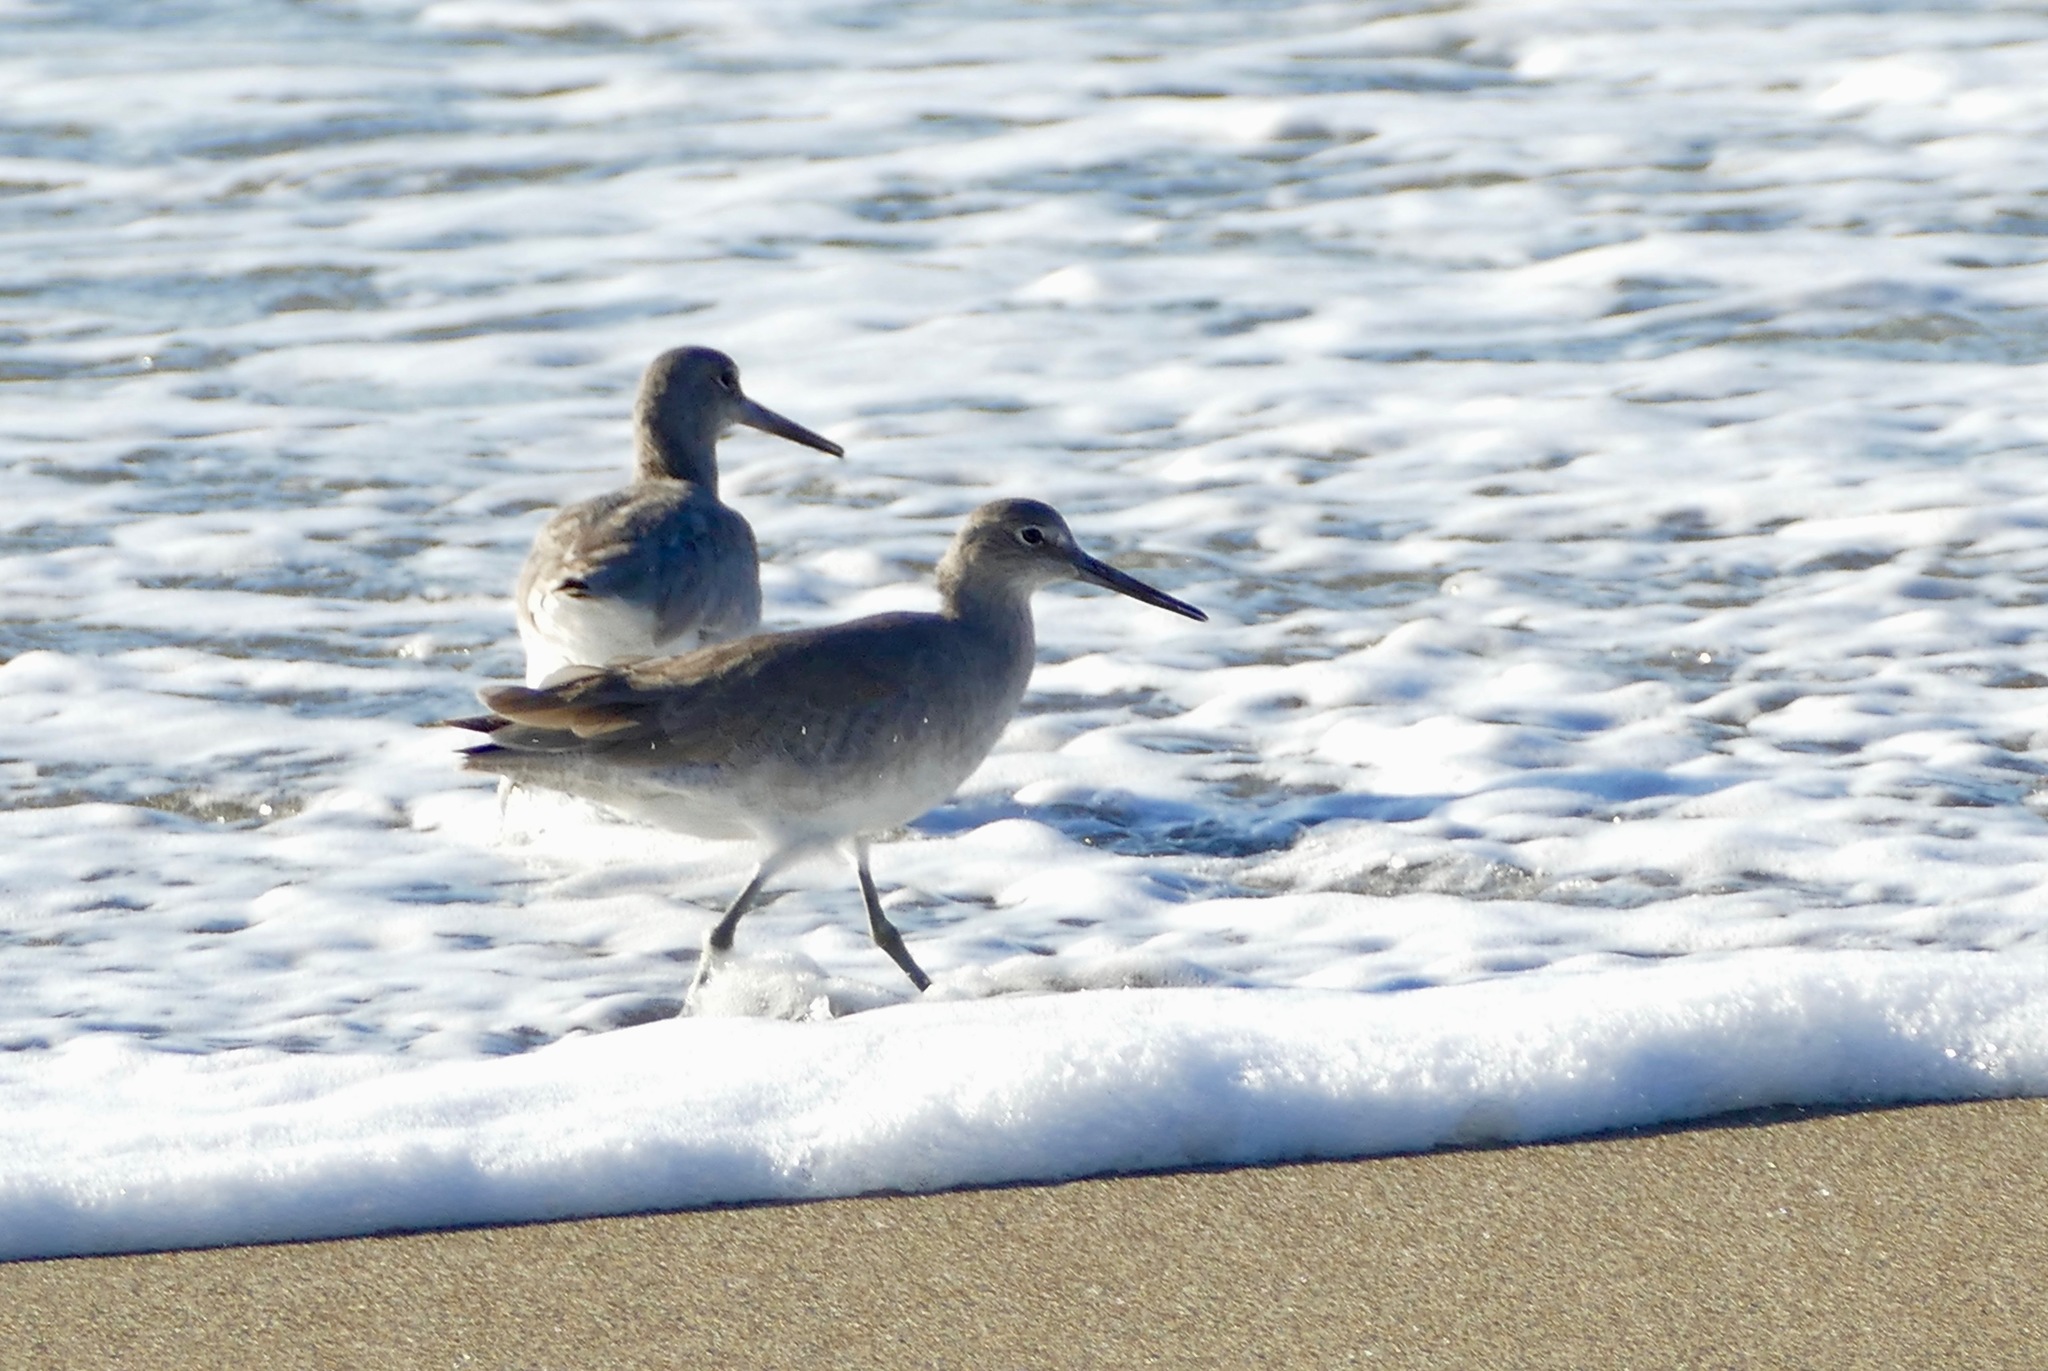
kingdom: Animalia
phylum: Chordata
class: Aves
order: Charadriiformes
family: Scolopacidae
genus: Tringa
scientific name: Tringa semipalmata
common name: Willet
